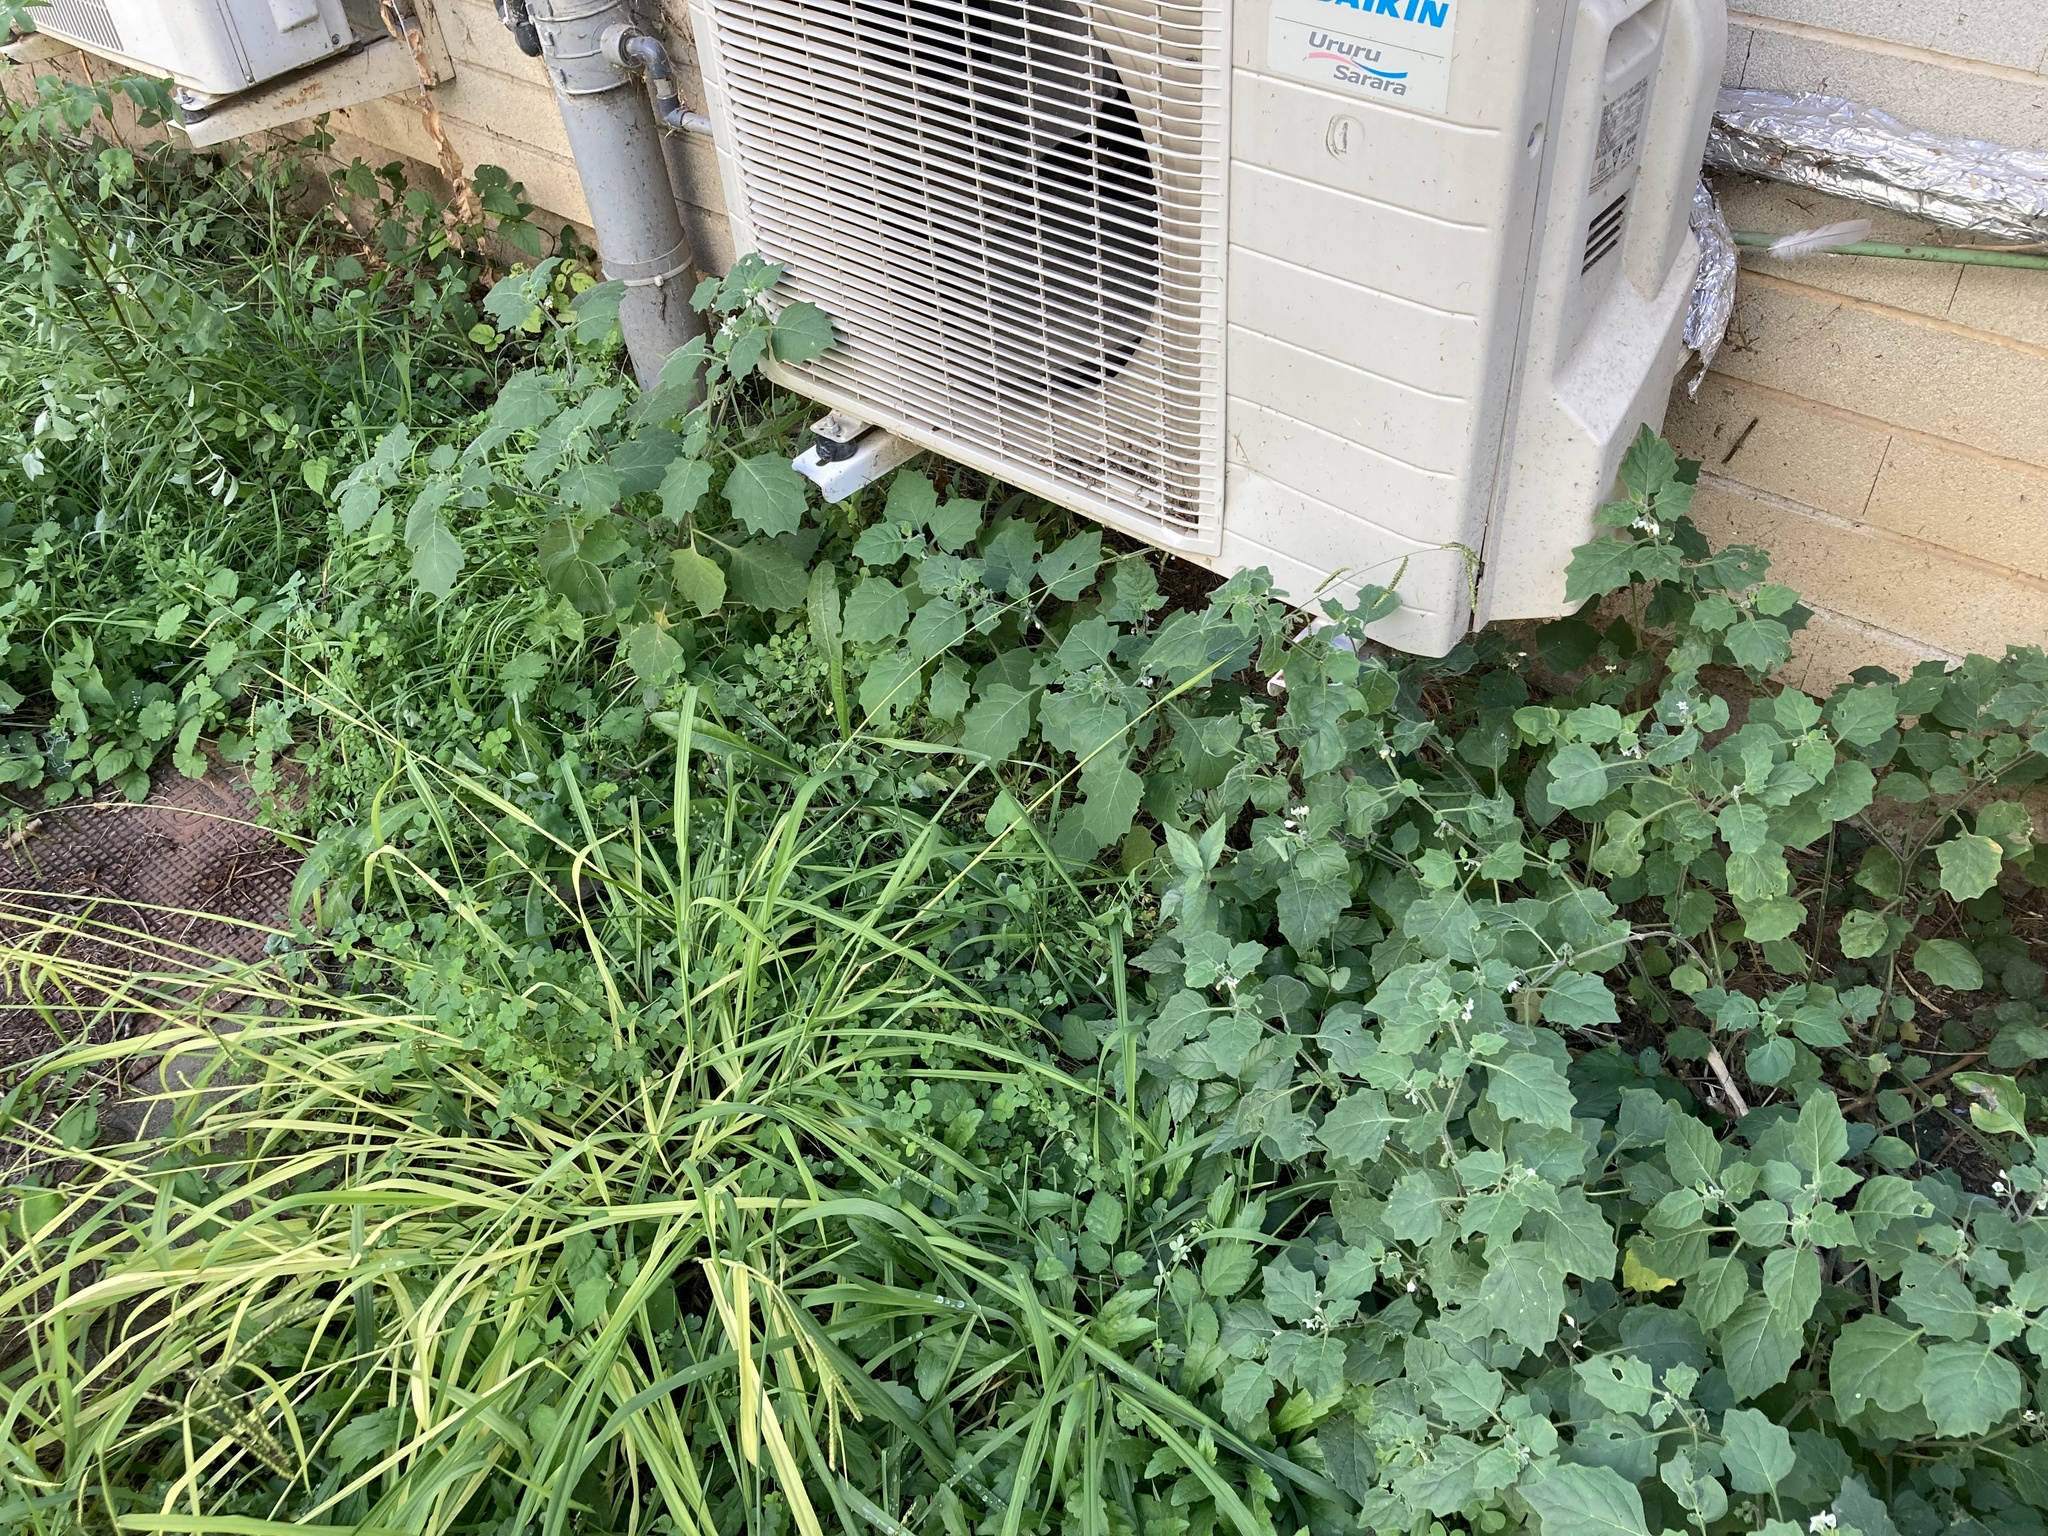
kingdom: Plantae
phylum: Tracheophyta
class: Magnoliopsida
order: Solanales
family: Solanaceae
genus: Solanum
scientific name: Solanum villosum
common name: Red nightshade
